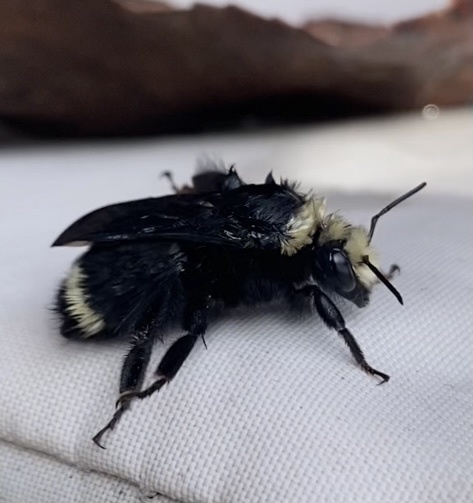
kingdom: Animalia
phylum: Arthropoda
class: Insecta
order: Hymenoptera
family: Apidae
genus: Bombus
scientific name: Bombus vosnesenskii
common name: Vosnesensky bumble bee
